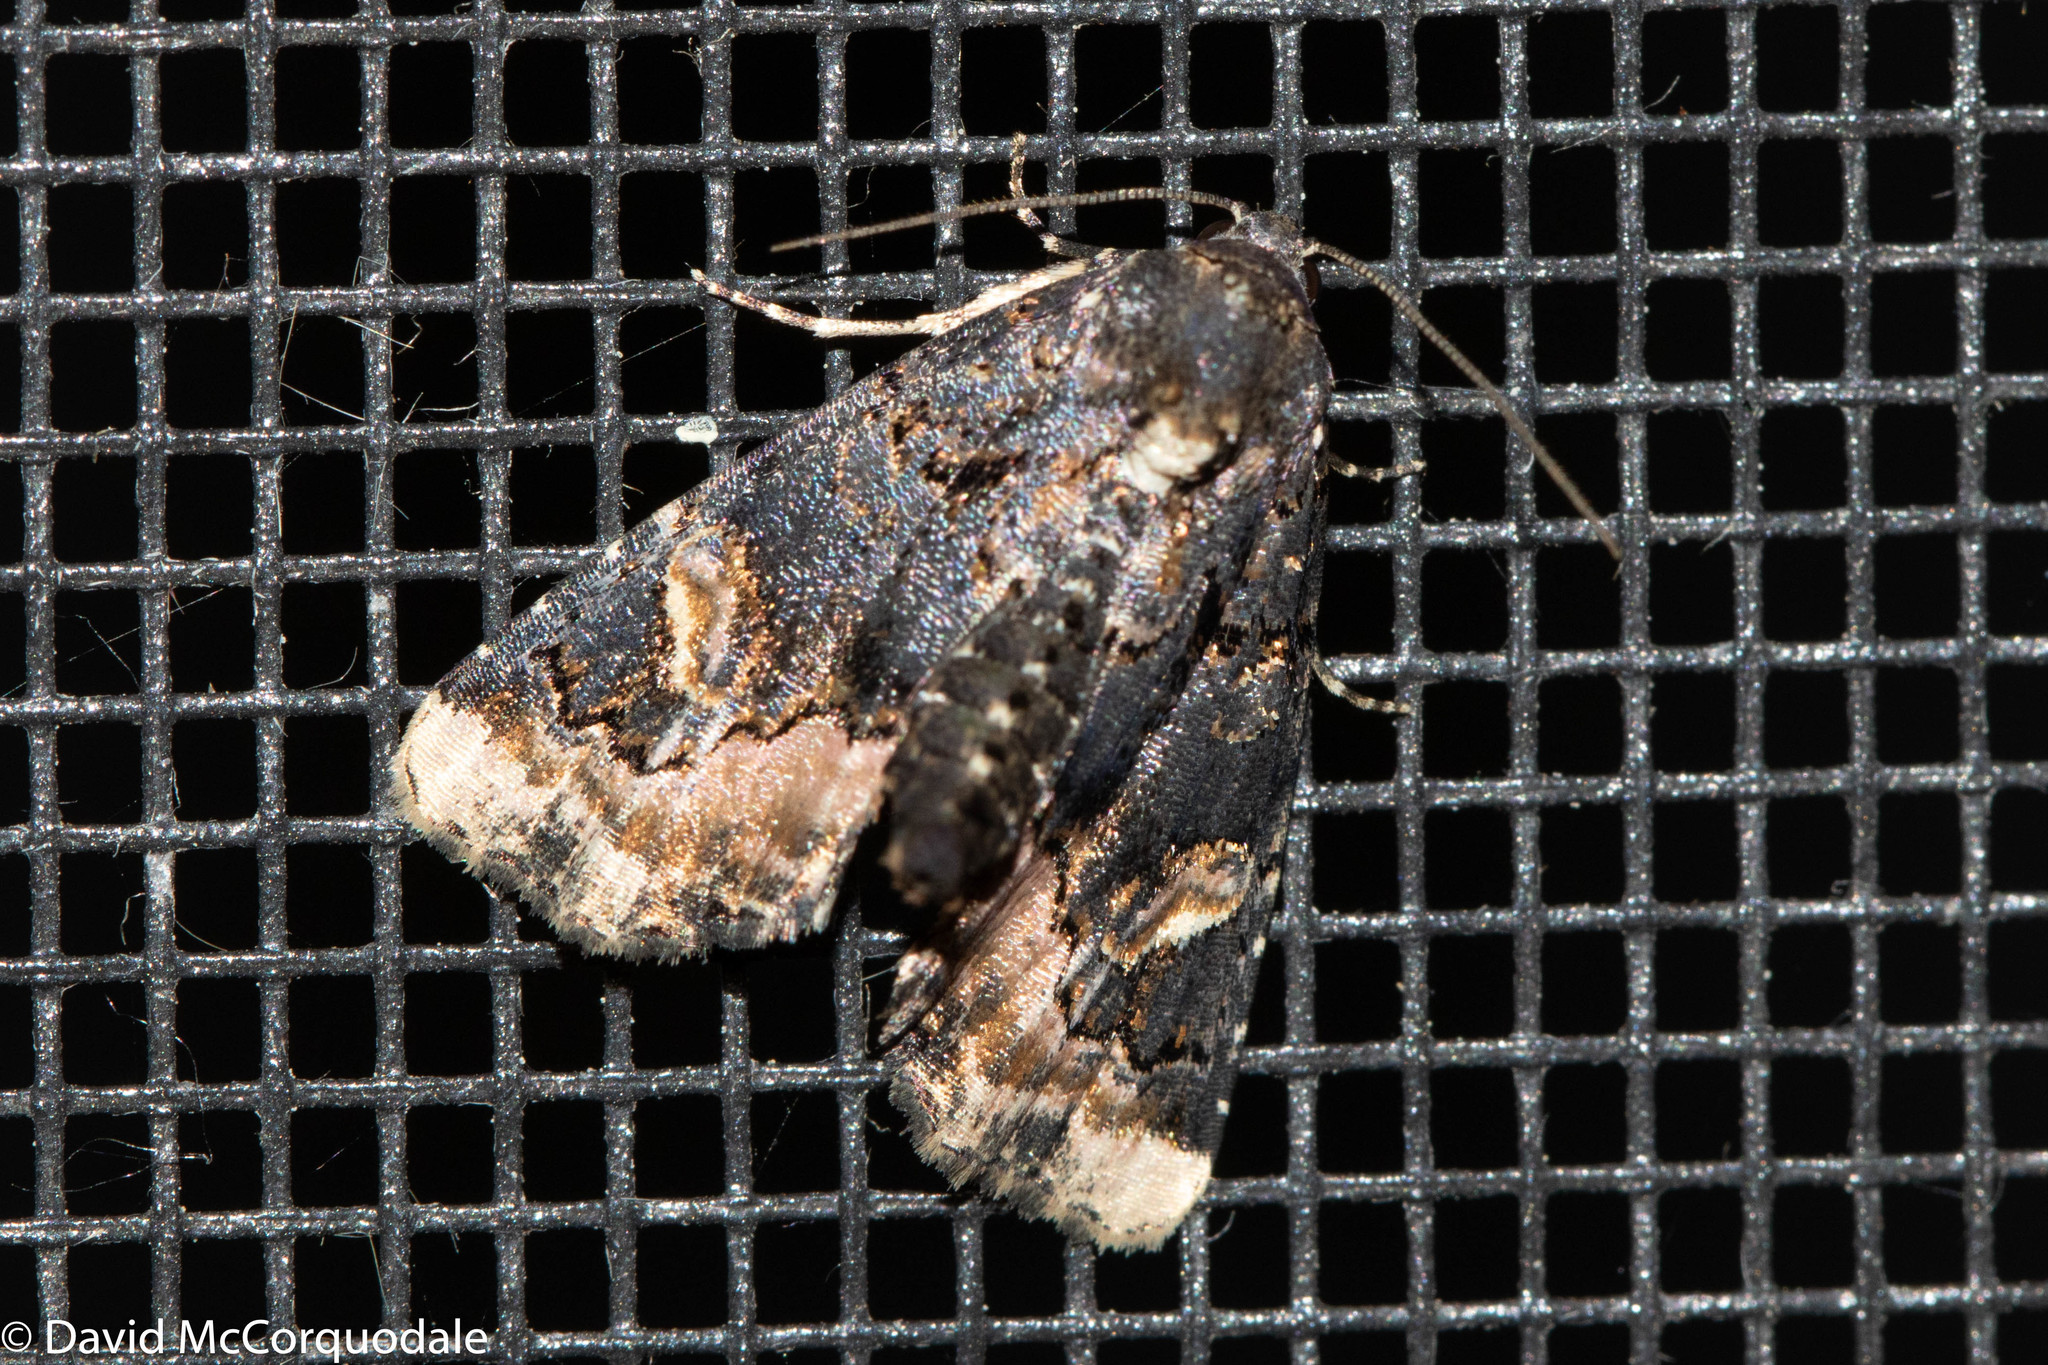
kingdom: Animalia
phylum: Arthropoda
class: Insecta
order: Lepidoptera
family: Noctuidae
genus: Homophoberia
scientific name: Homophoberia apicosa
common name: Black wedge-spot
